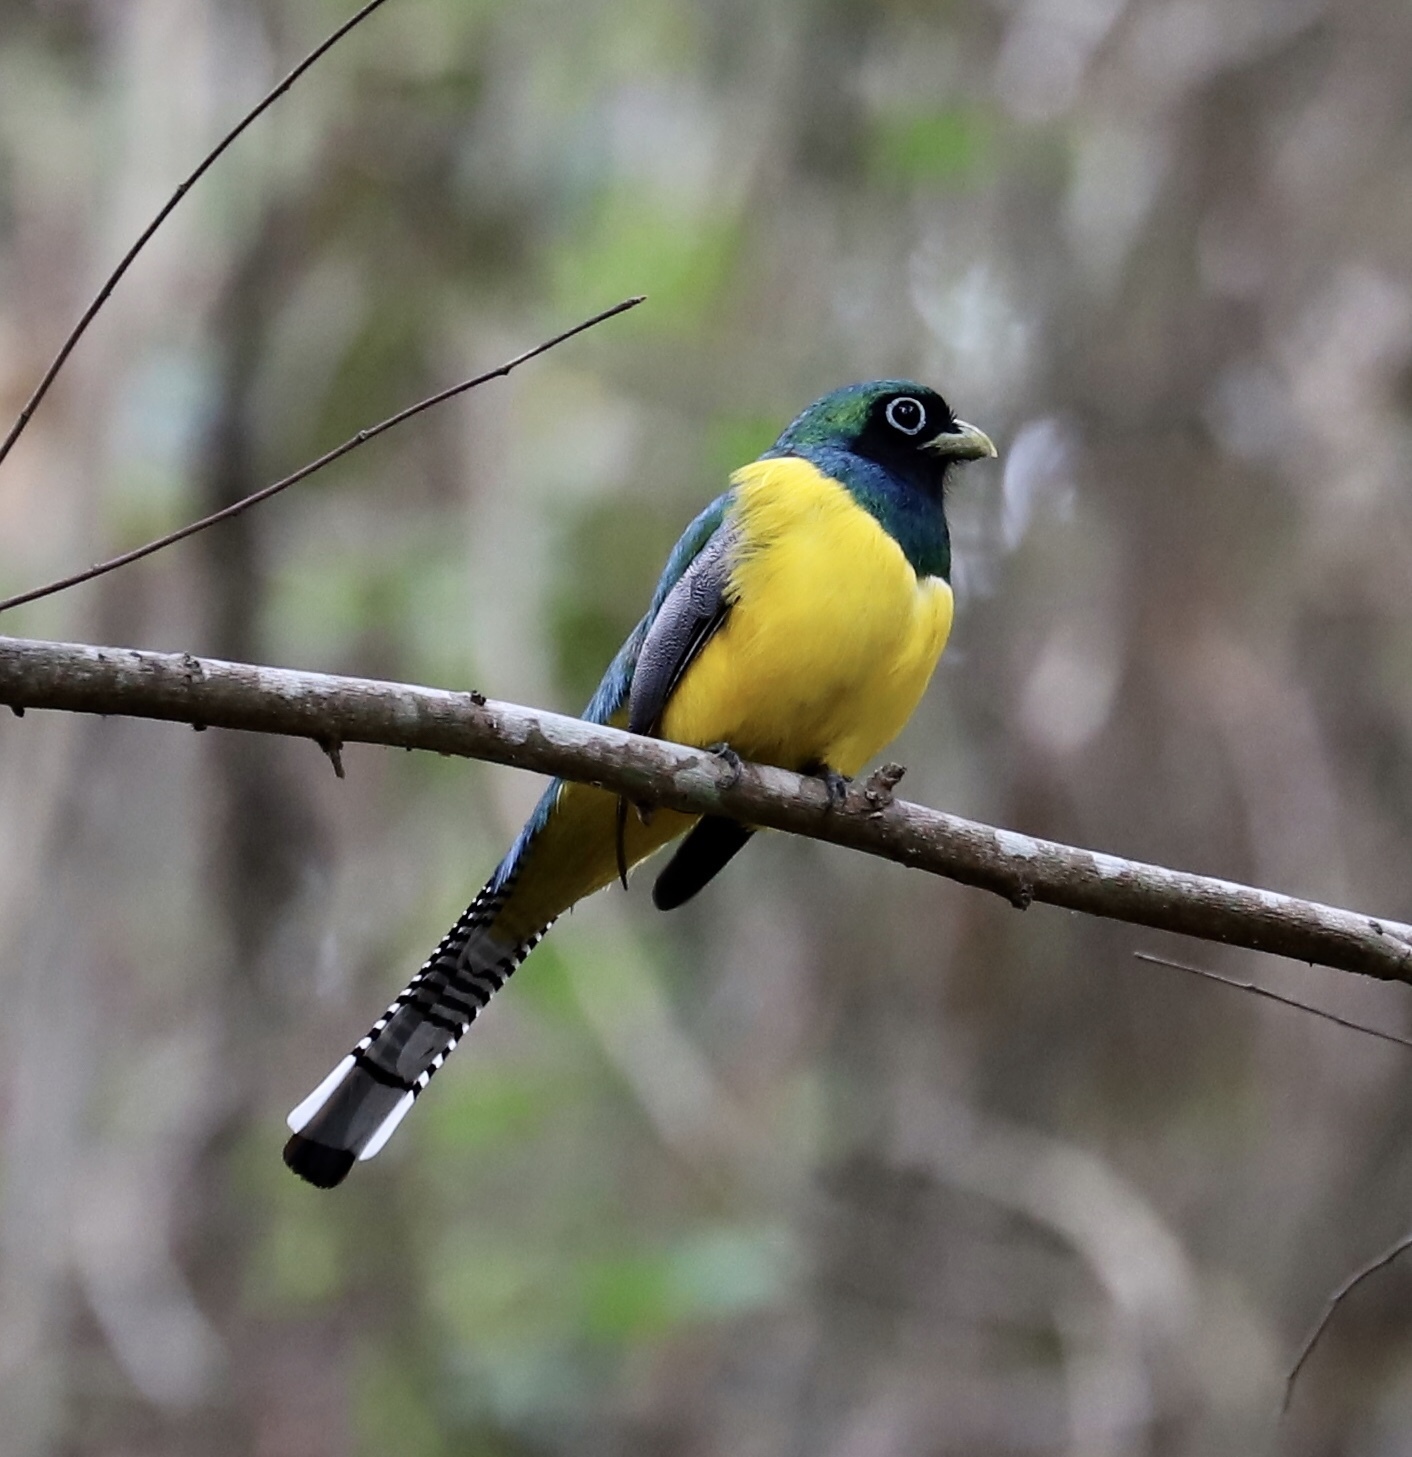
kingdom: Animalia
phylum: Chordata
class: Aves
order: Trogoniformes
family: Trogonidae
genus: Trogon
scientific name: Trogon rufus
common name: Black-throated trogon
